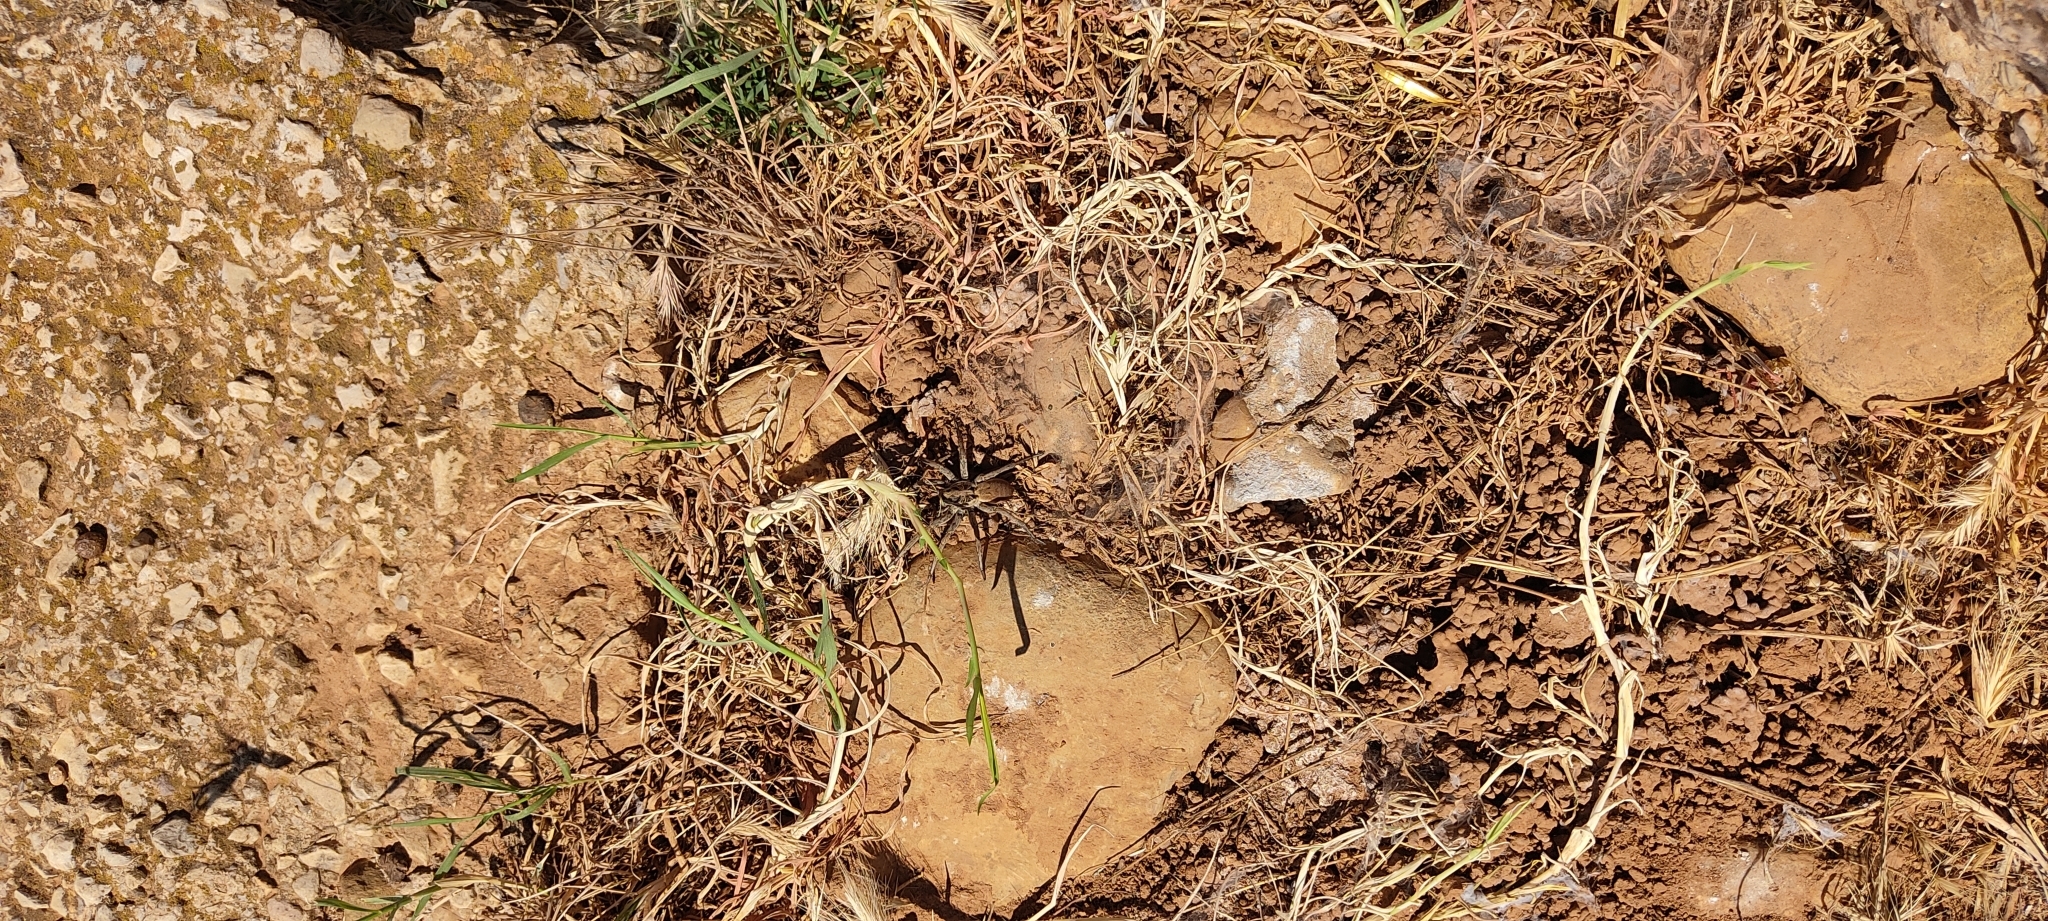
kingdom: Animalia
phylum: Arthropoda
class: Arachnida
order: Araneae
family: Lycosidae
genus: Hogna
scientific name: Hogna radiata
